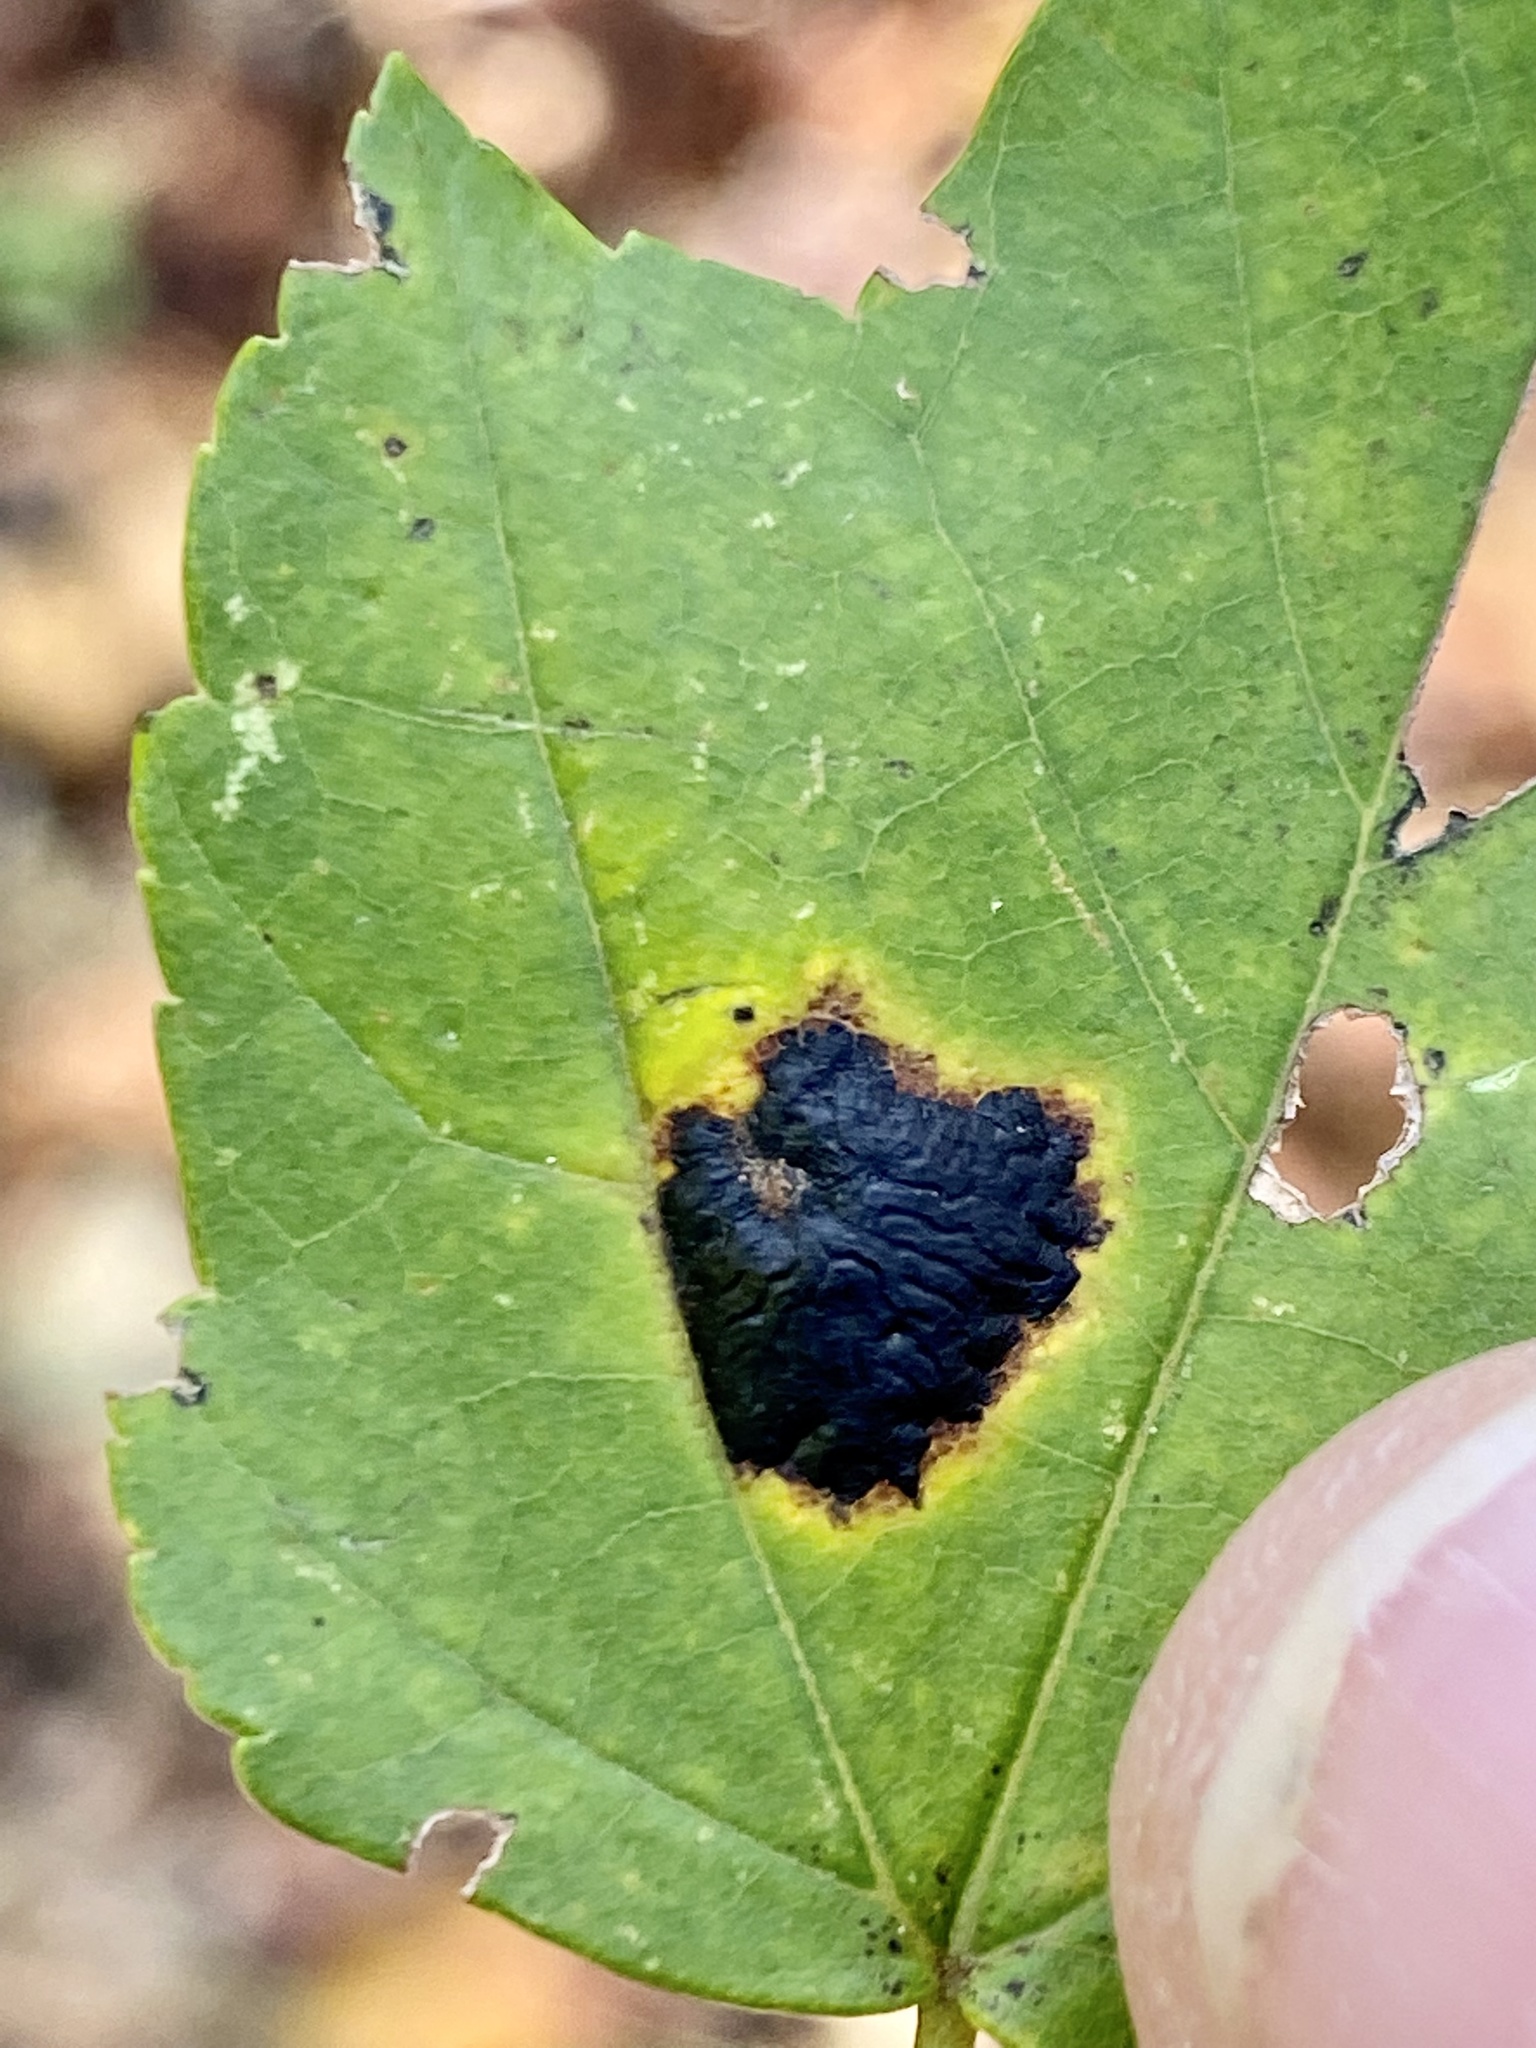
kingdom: Fungi
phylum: Ascomycota
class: Leotiomycetes
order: Rhytismatales
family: Rhytismataceae
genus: Rhytisma
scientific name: Rhytisma americanum
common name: American tar spot
